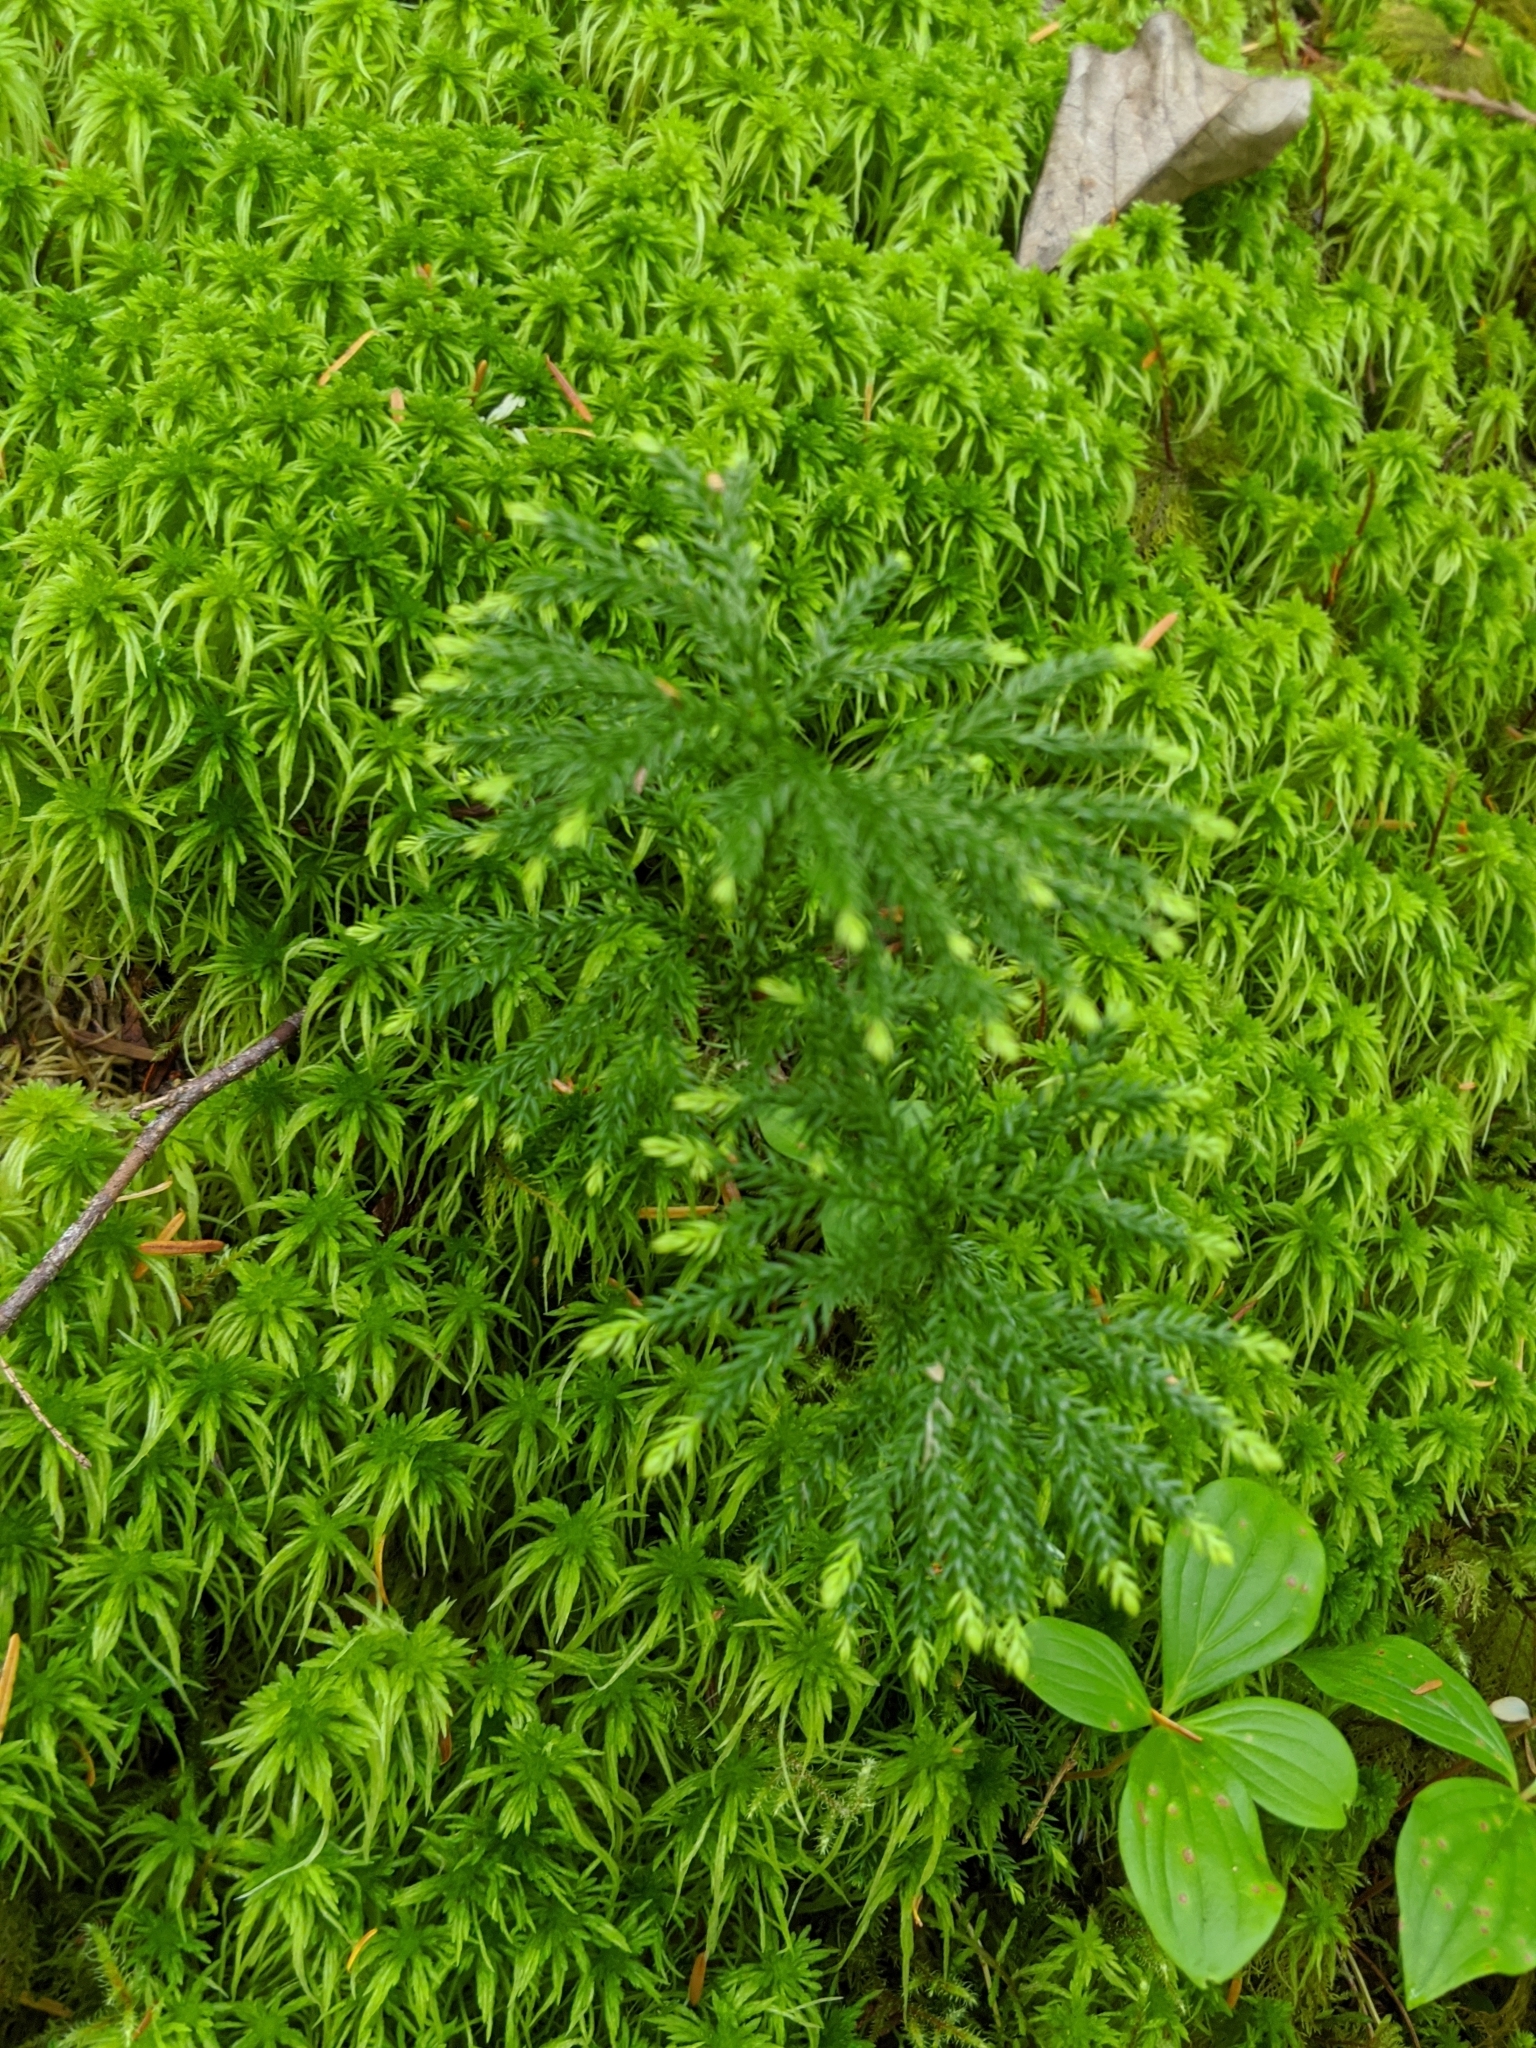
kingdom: Plantae
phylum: Tracheophyta
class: Lycopodiopsida
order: Lycopodiales
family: Lycopodiaceae
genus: Dendrolycopodium
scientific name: Dendrolycopodium dendroideum
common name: Northern tree-clubmoss
